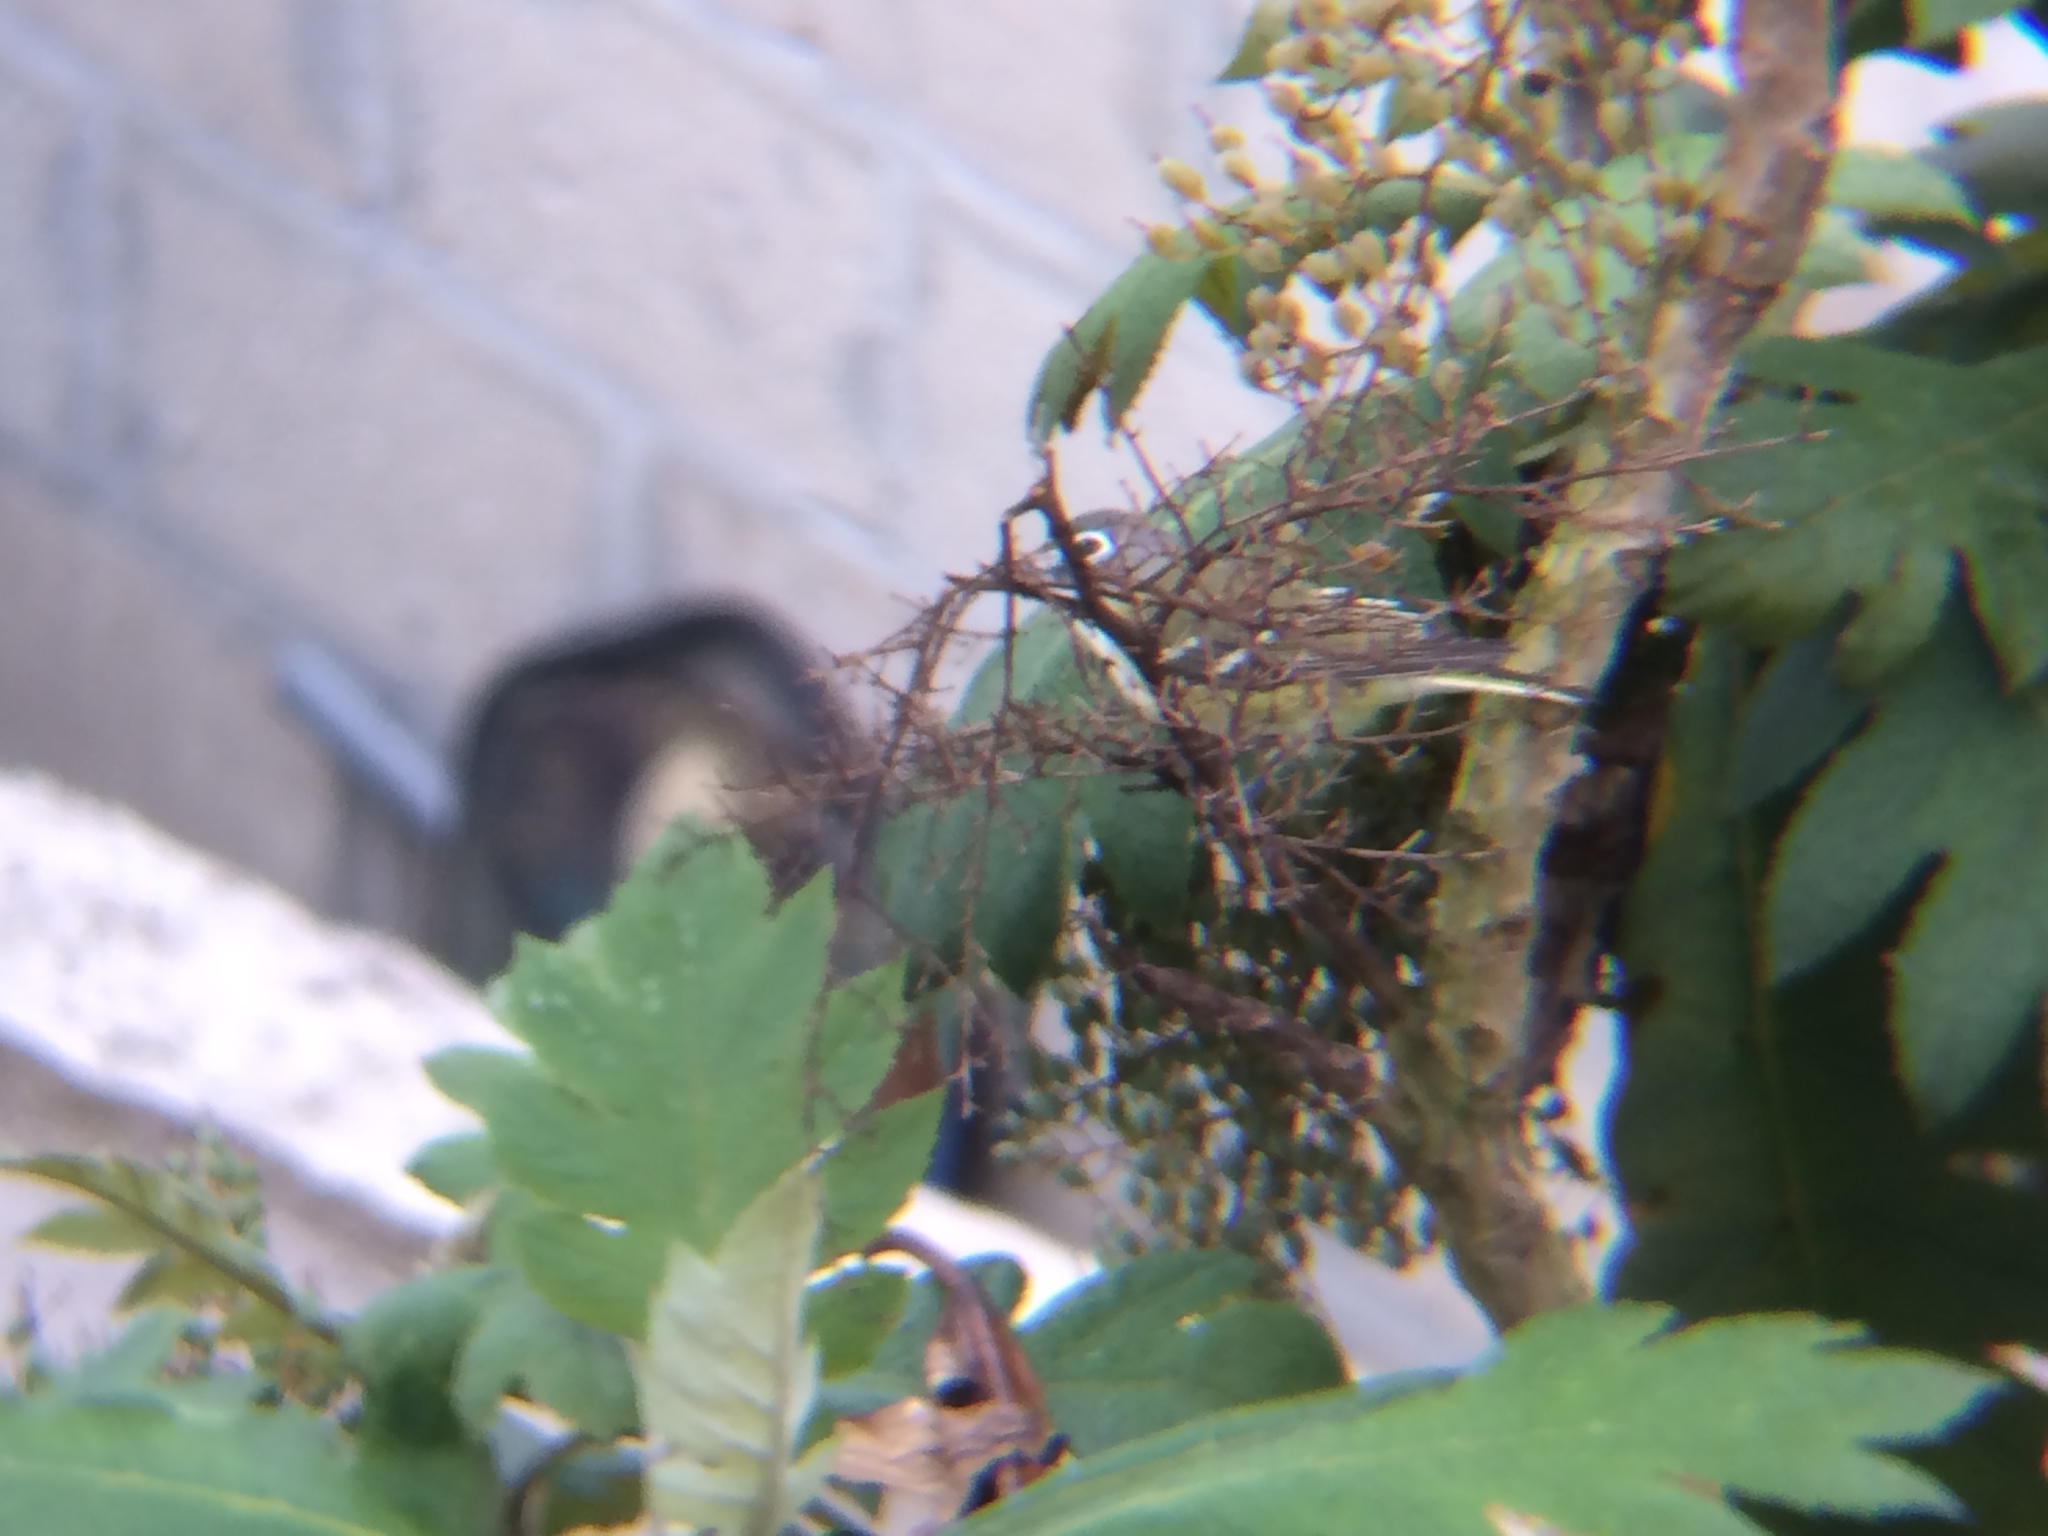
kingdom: Animalia
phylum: Chordata
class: Aves
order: Passeriformes
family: Vireonidae
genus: Vireo
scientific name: Vireo solitarius
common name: Blue-headed vireo
